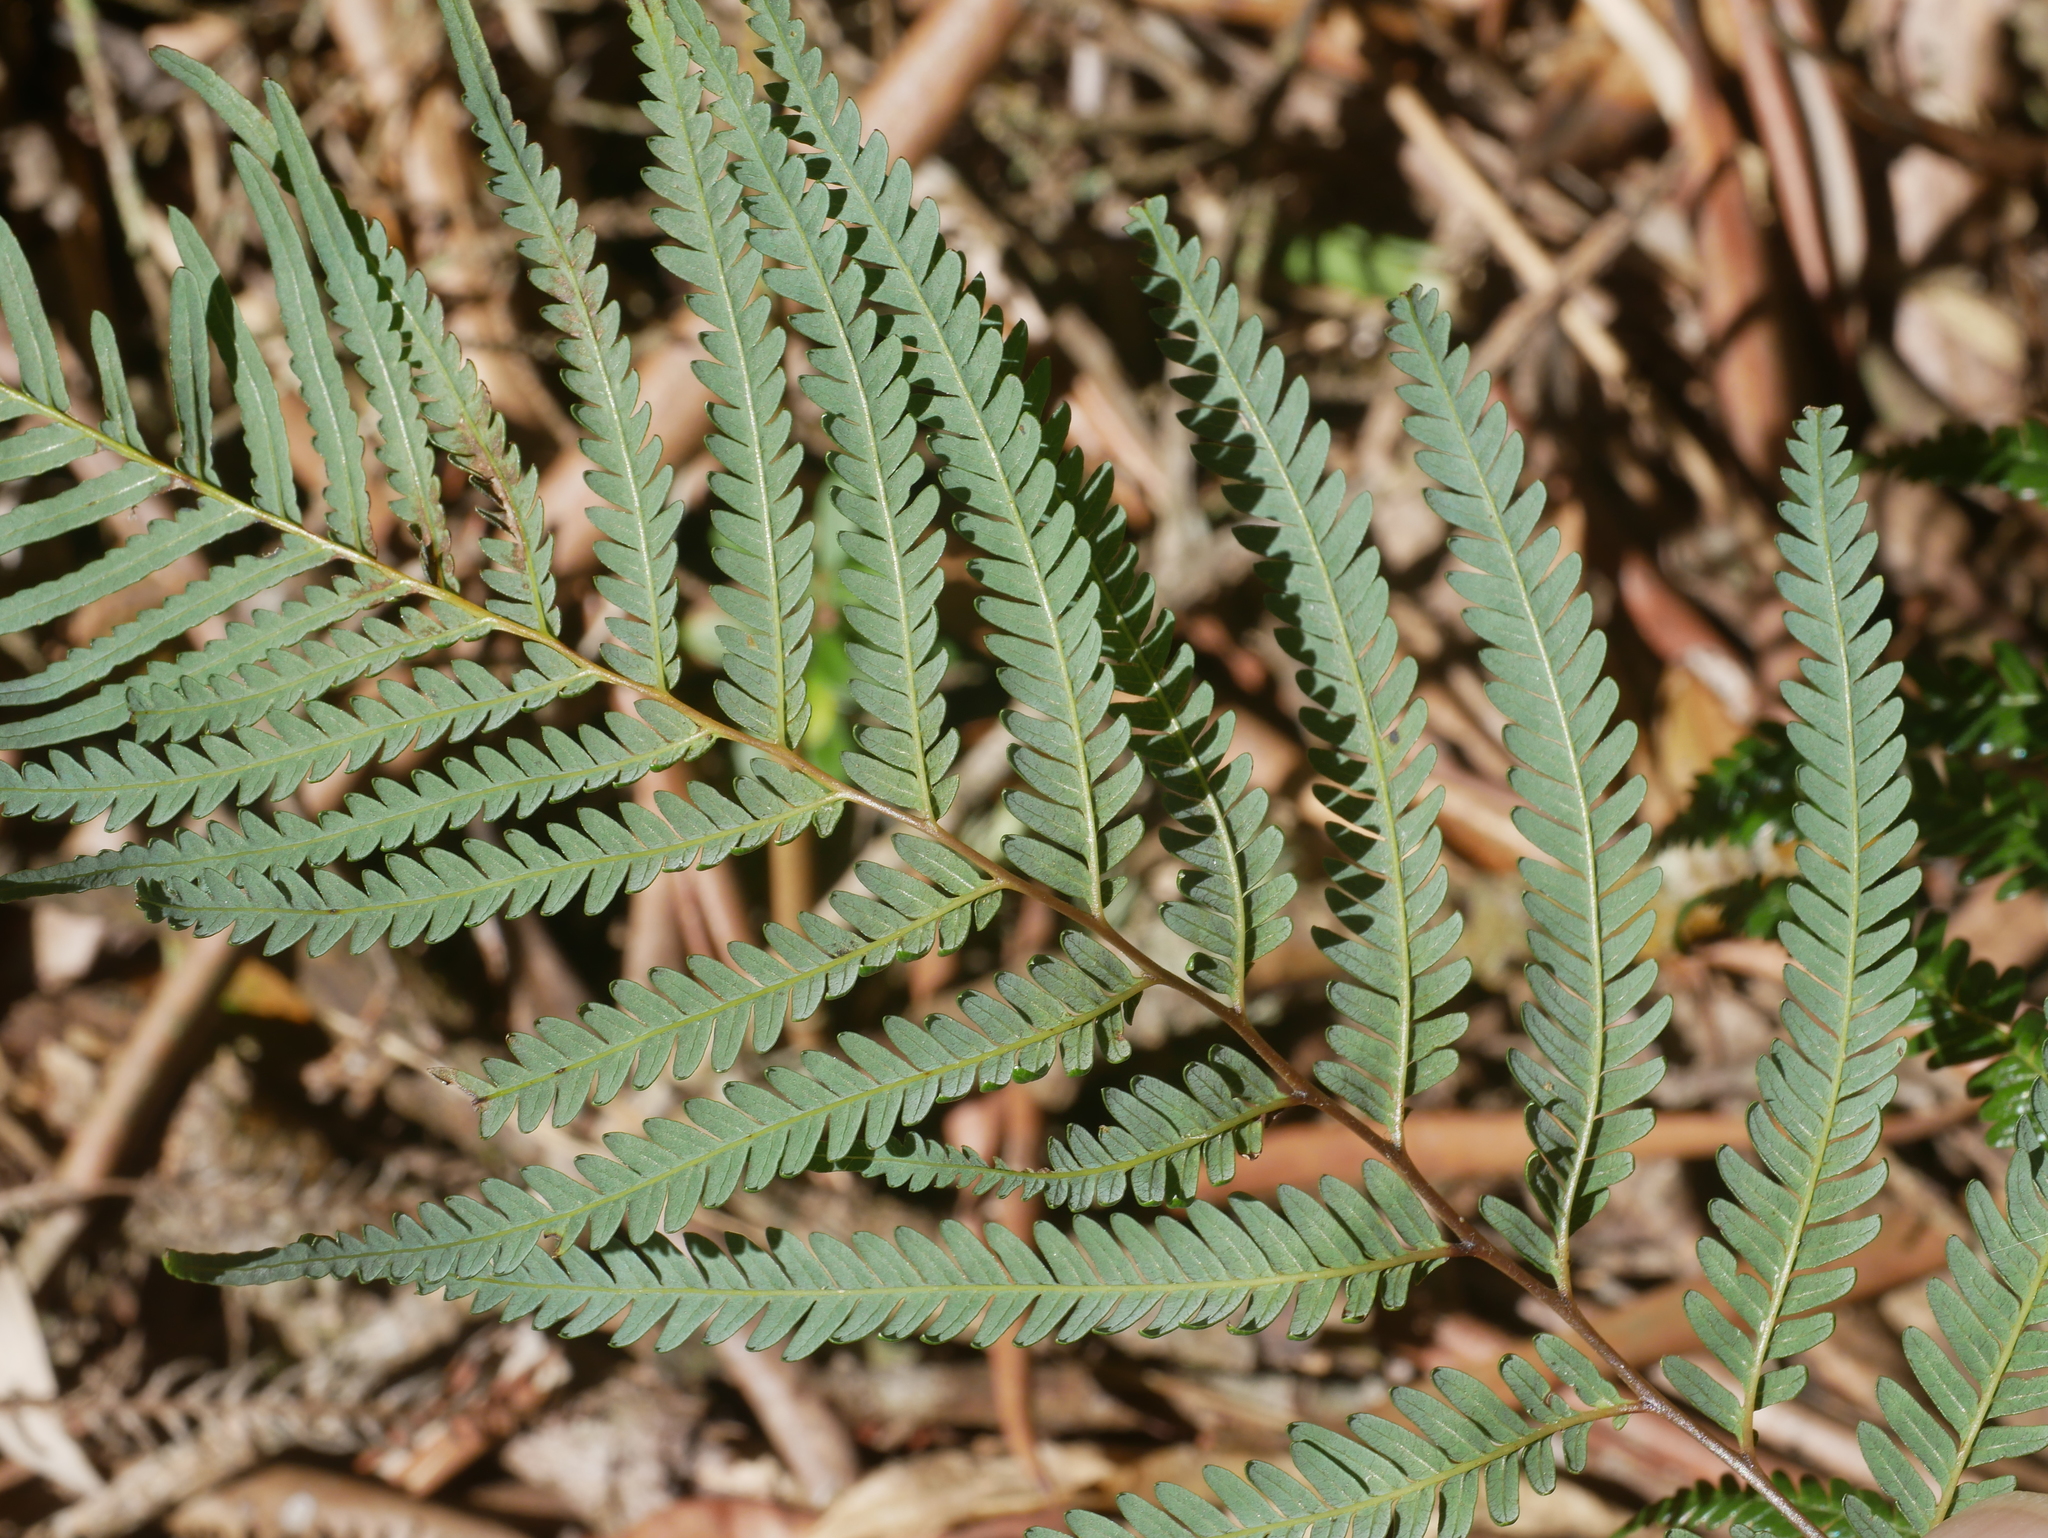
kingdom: Plantae
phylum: Tracheophyta
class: Polypodiopsida
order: Gleicheniales
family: Gleicheniaceae
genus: Diplopterygium
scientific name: Diplopterygium laevissimum
